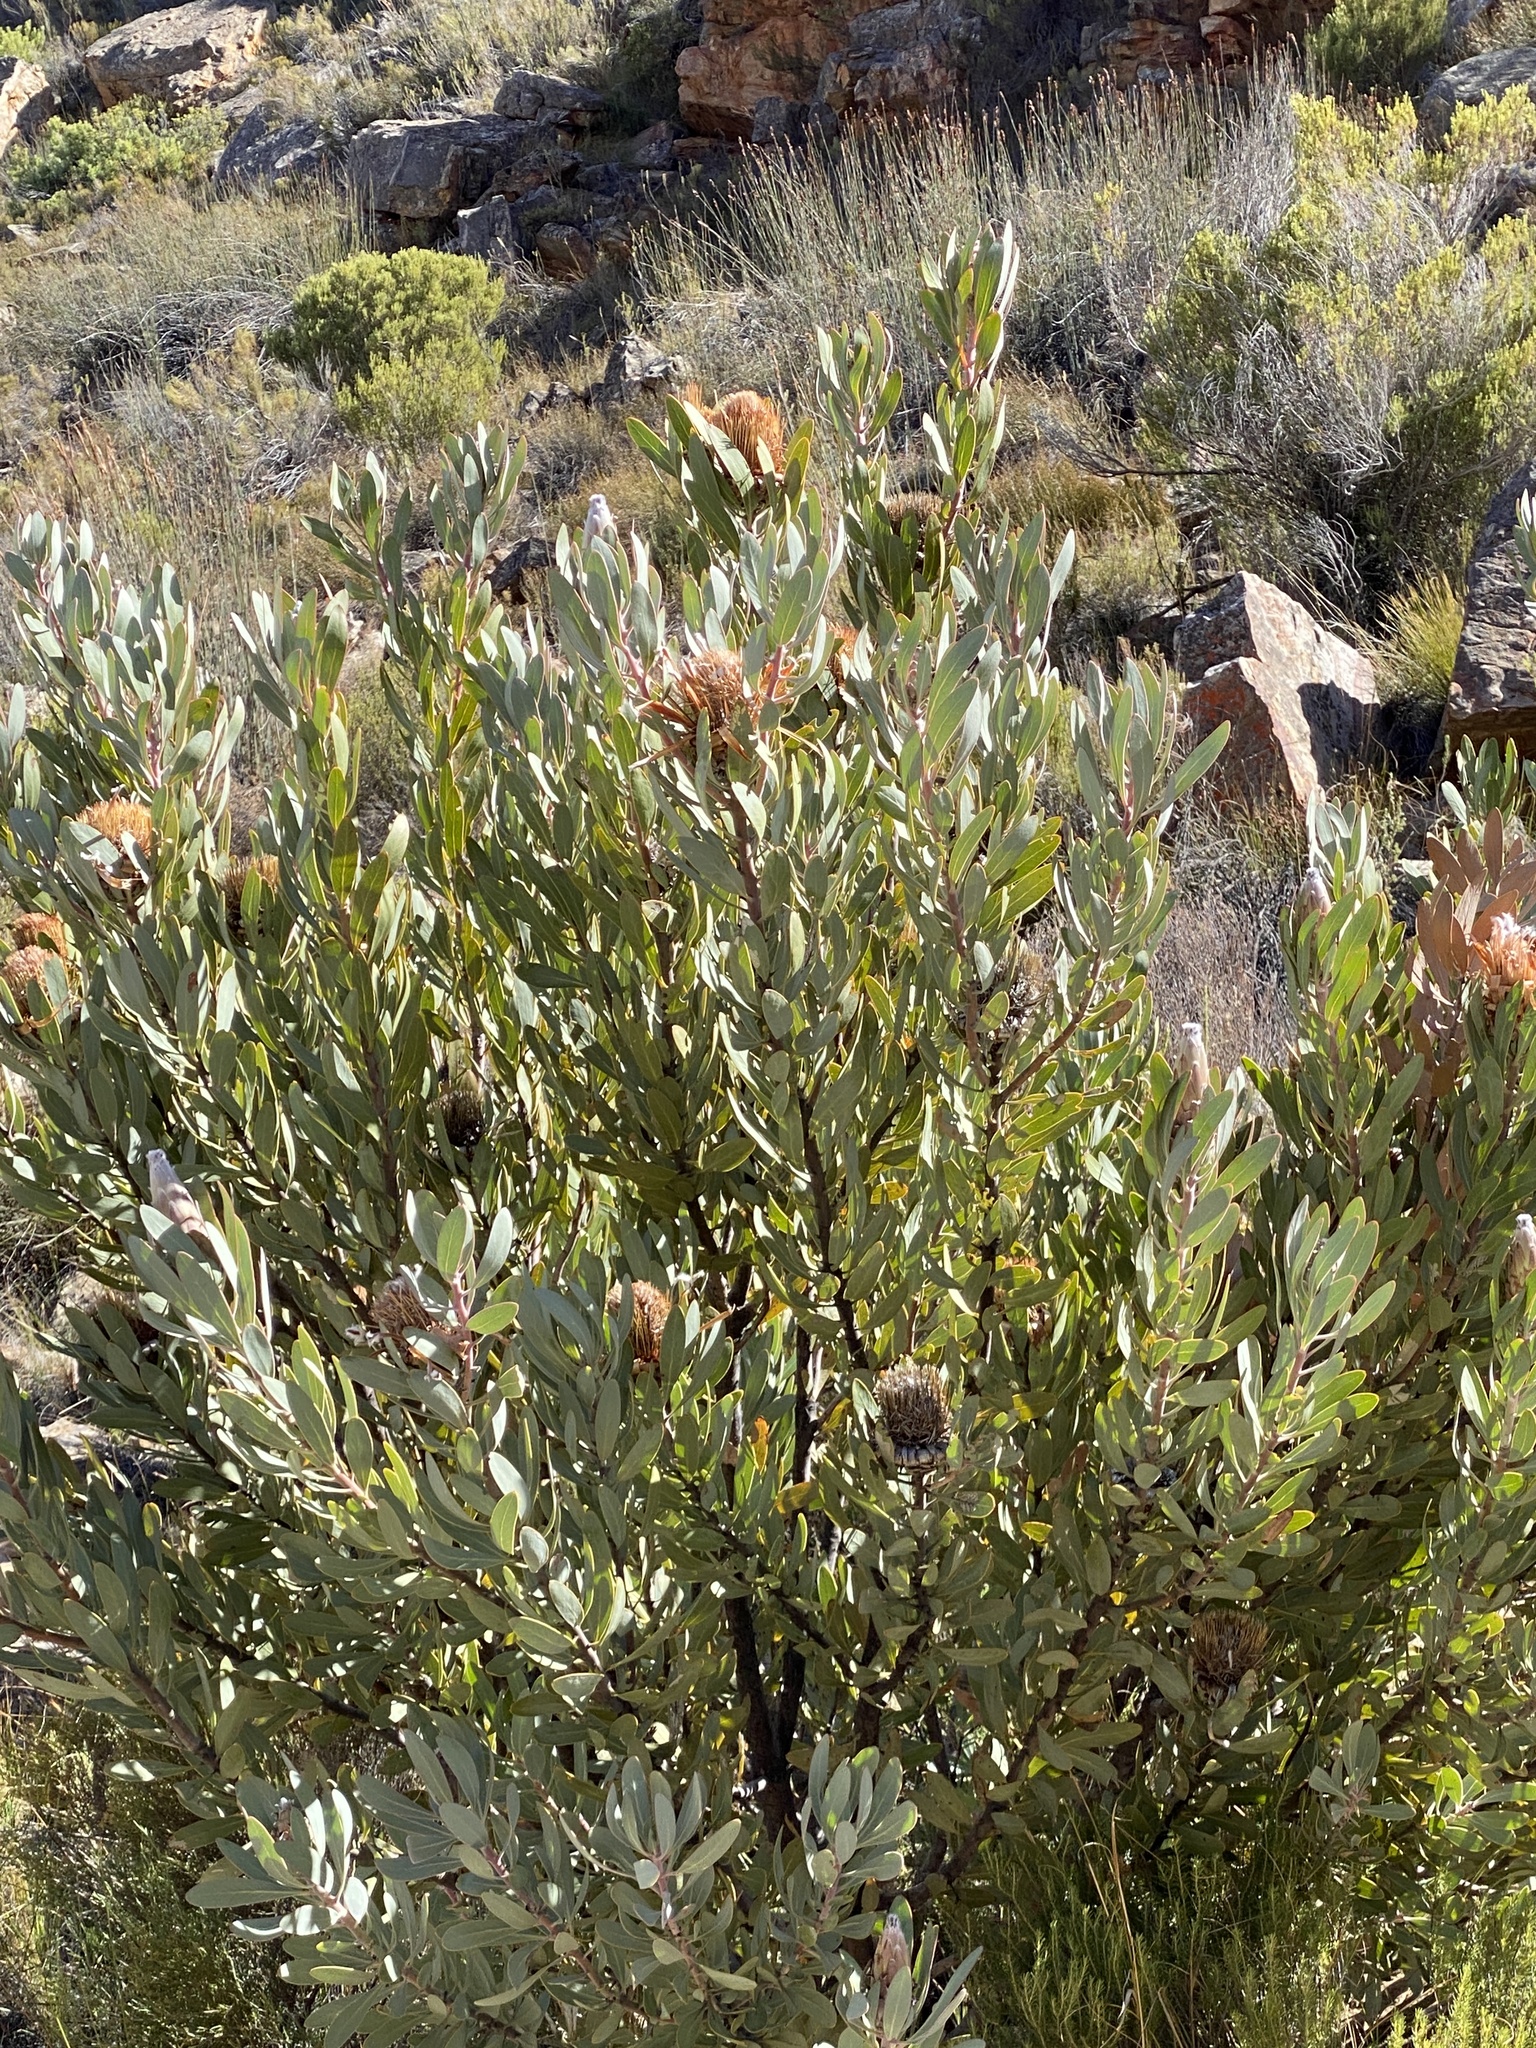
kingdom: Plantae
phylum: Tracheophyta
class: Magnoliopsida
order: Proteales
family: Proteaceae
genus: Protea
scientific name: Protea laurifolia
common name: Grey-leaf sugarbsh
